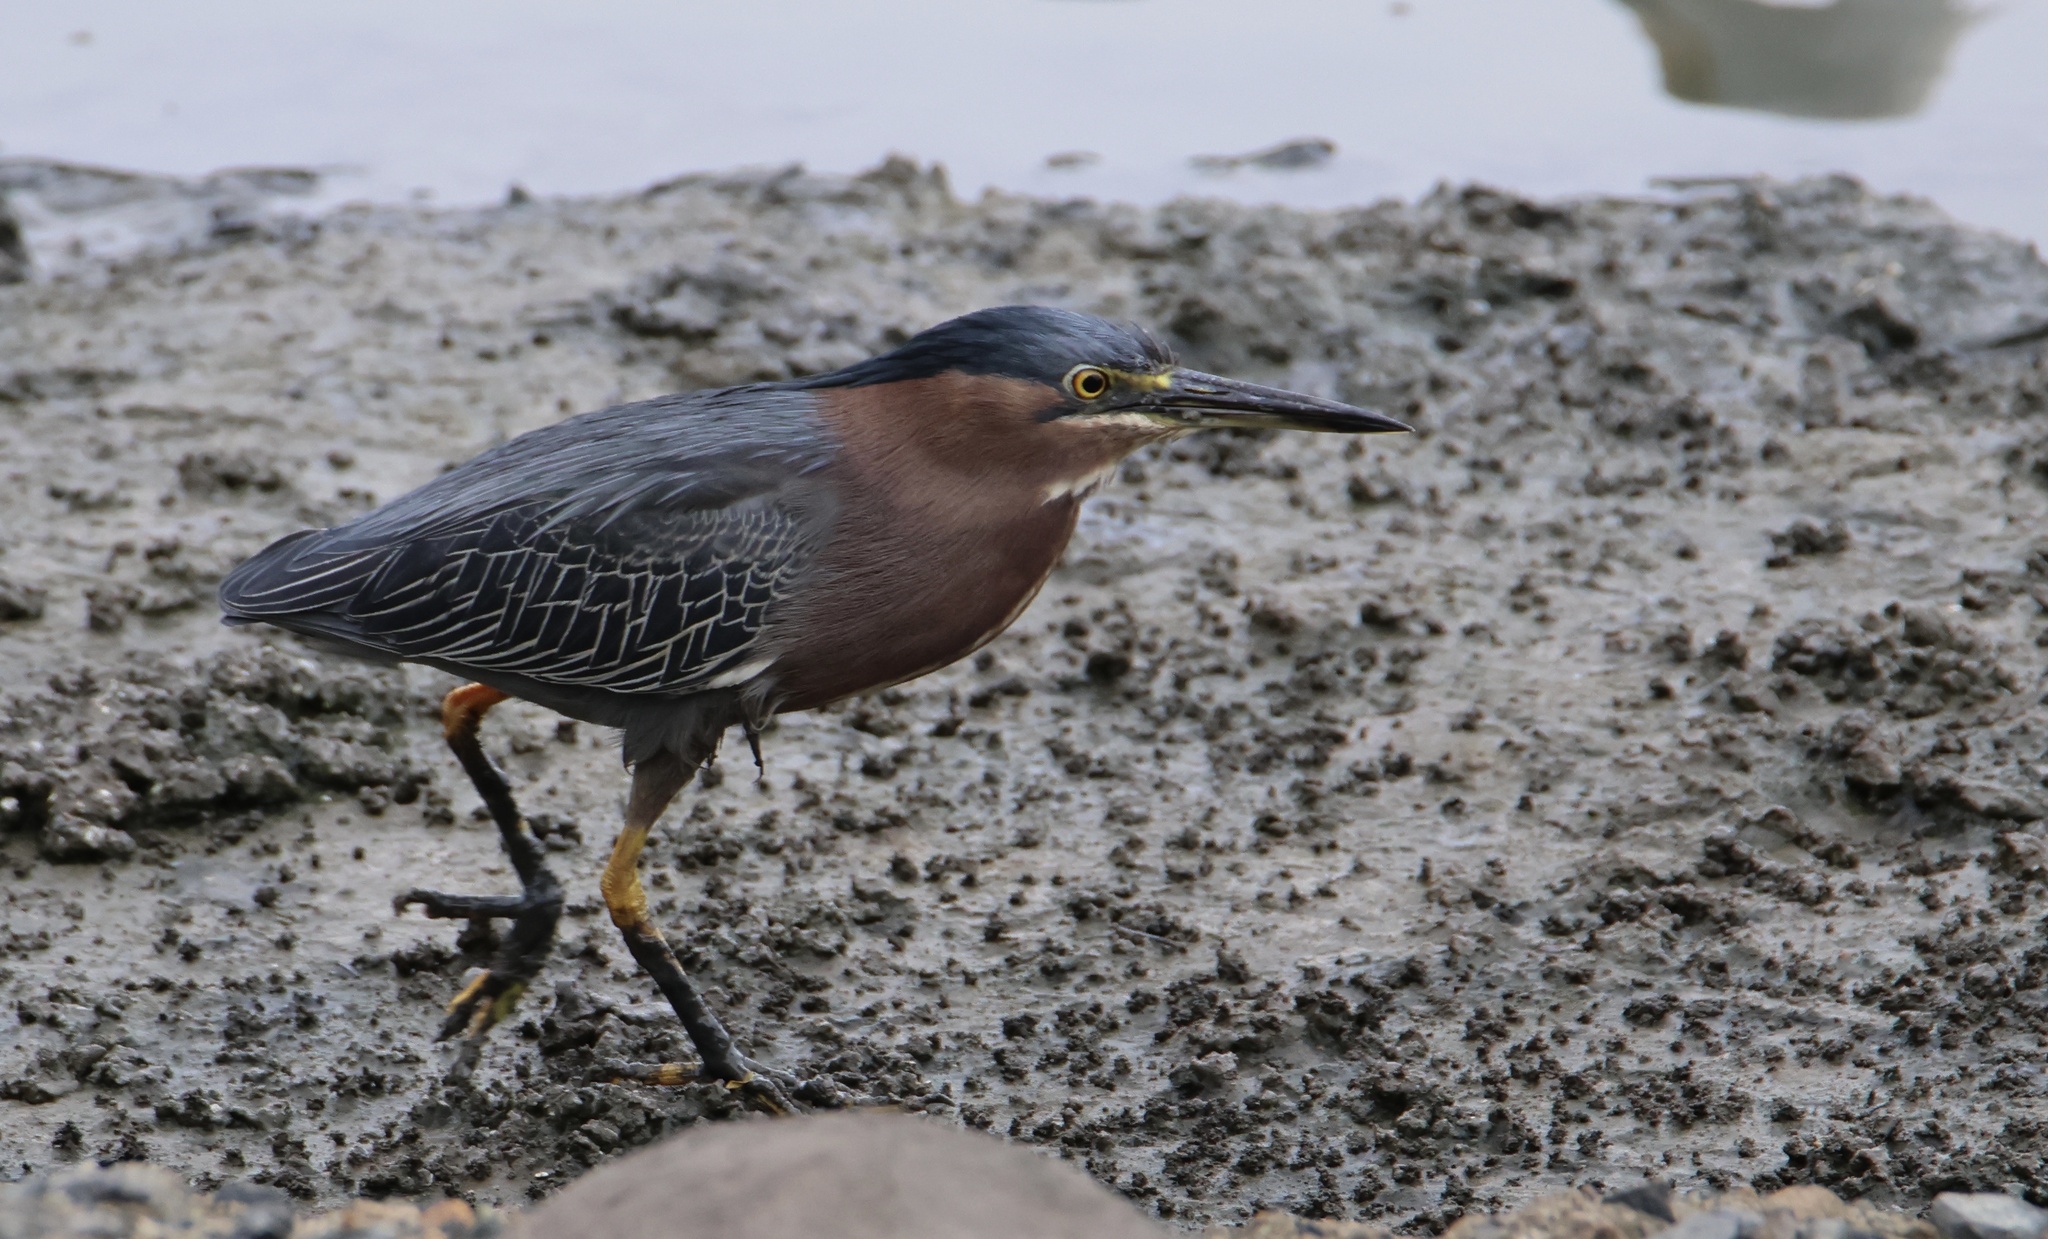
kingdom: Animalia
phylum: Chordata
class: Aves
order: Pelecaniformes
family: Ardeidae
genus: Butorides
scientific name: Butorides virescens
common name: Green heron
